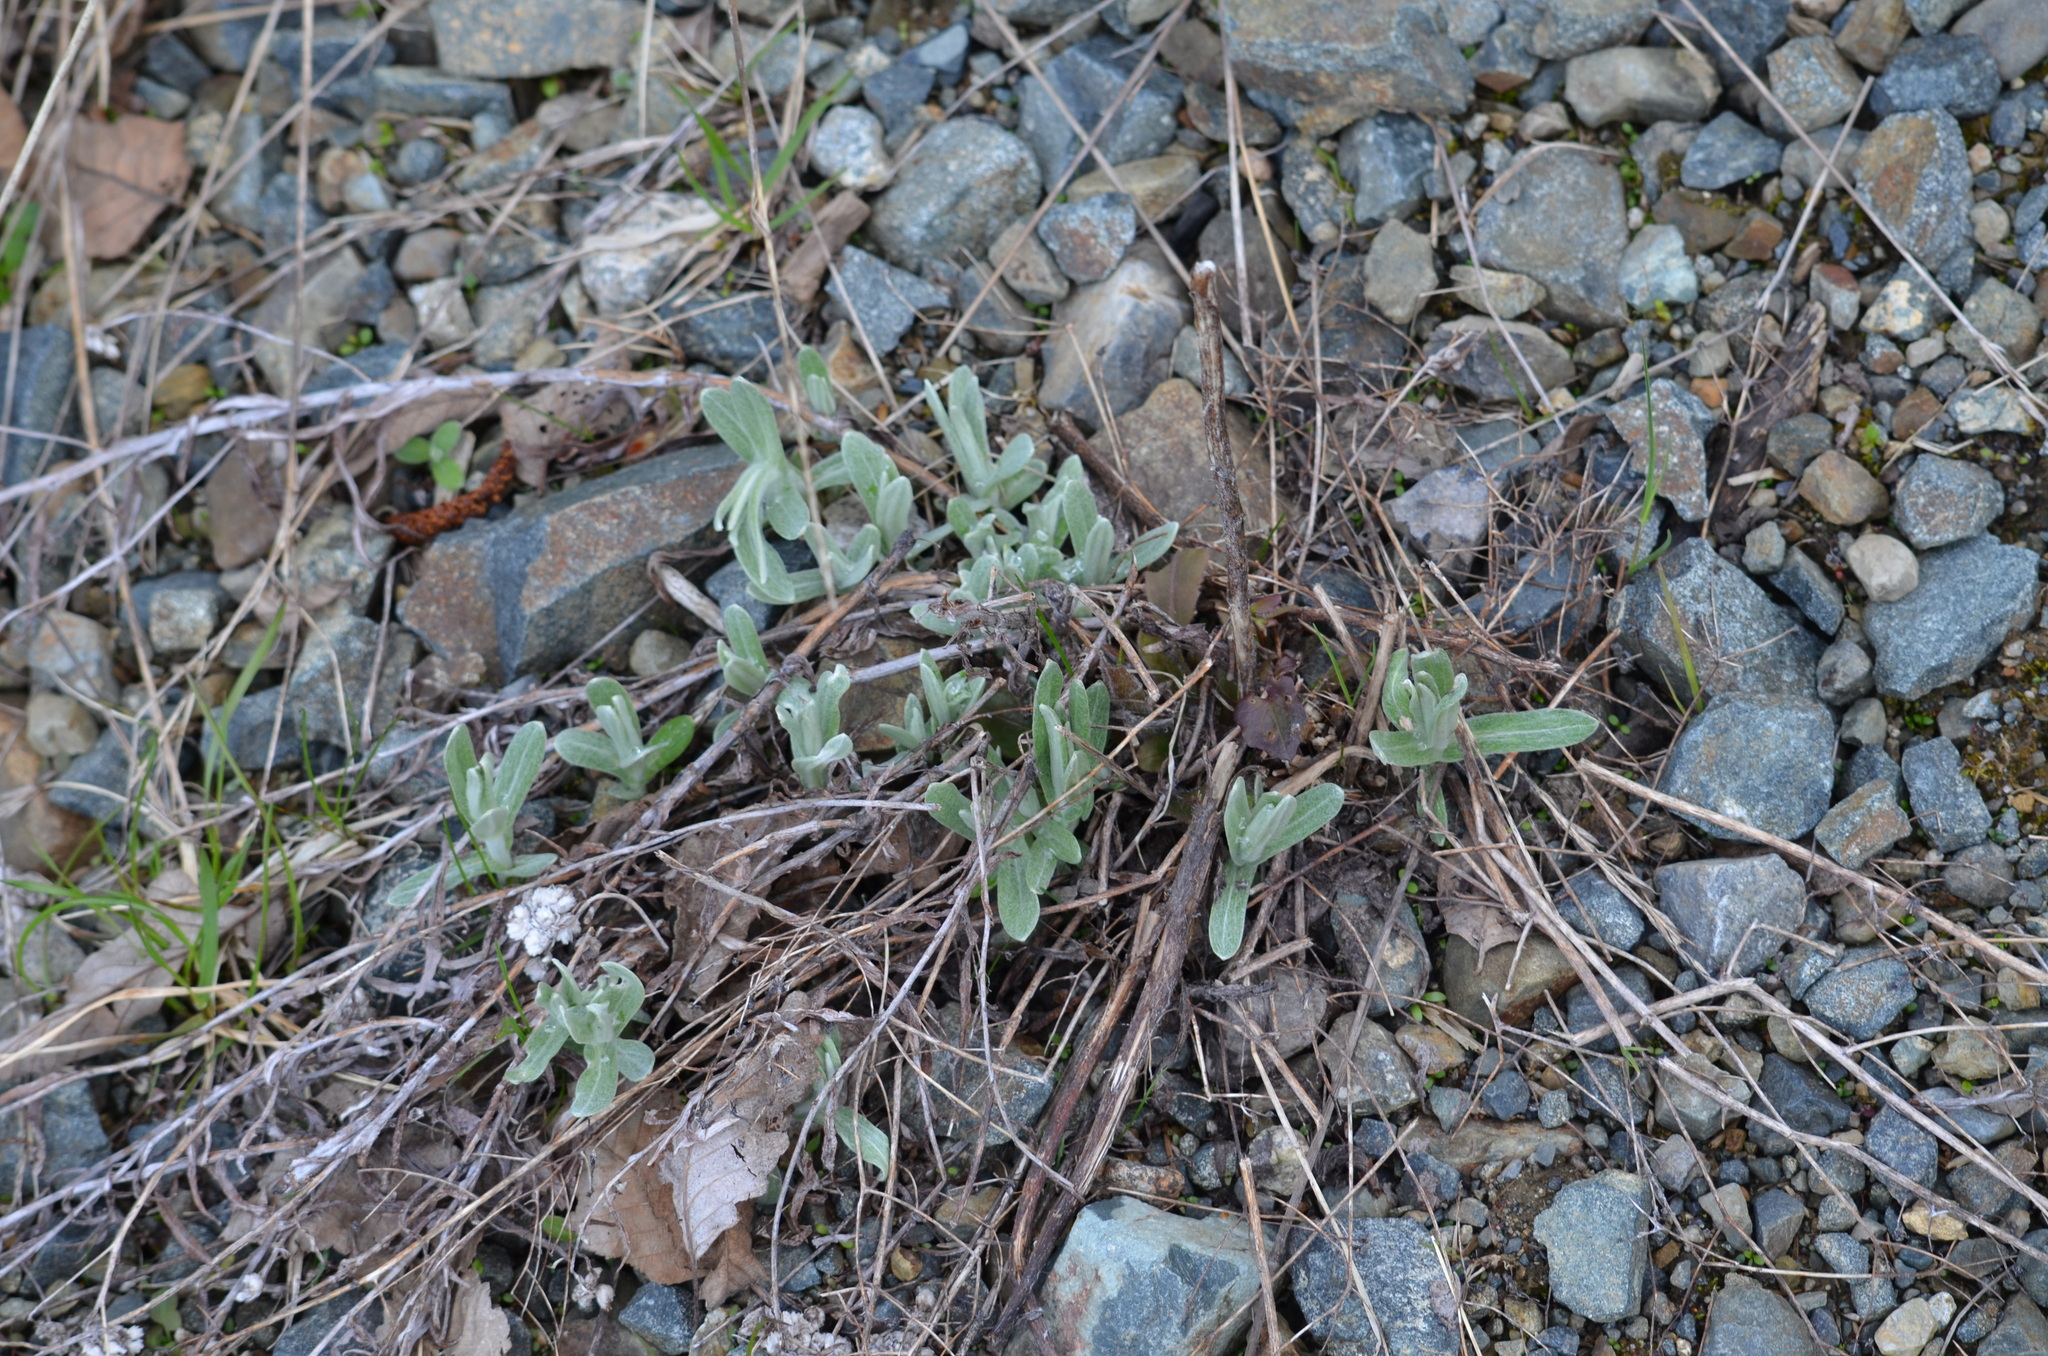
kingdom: Plantae
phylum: Tracheophyta
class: Magnoliopsida
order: Asterales
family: Asteraceae
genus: Anaphalis
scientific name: Anaphalis margaritacea
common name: Pearly everlasting
